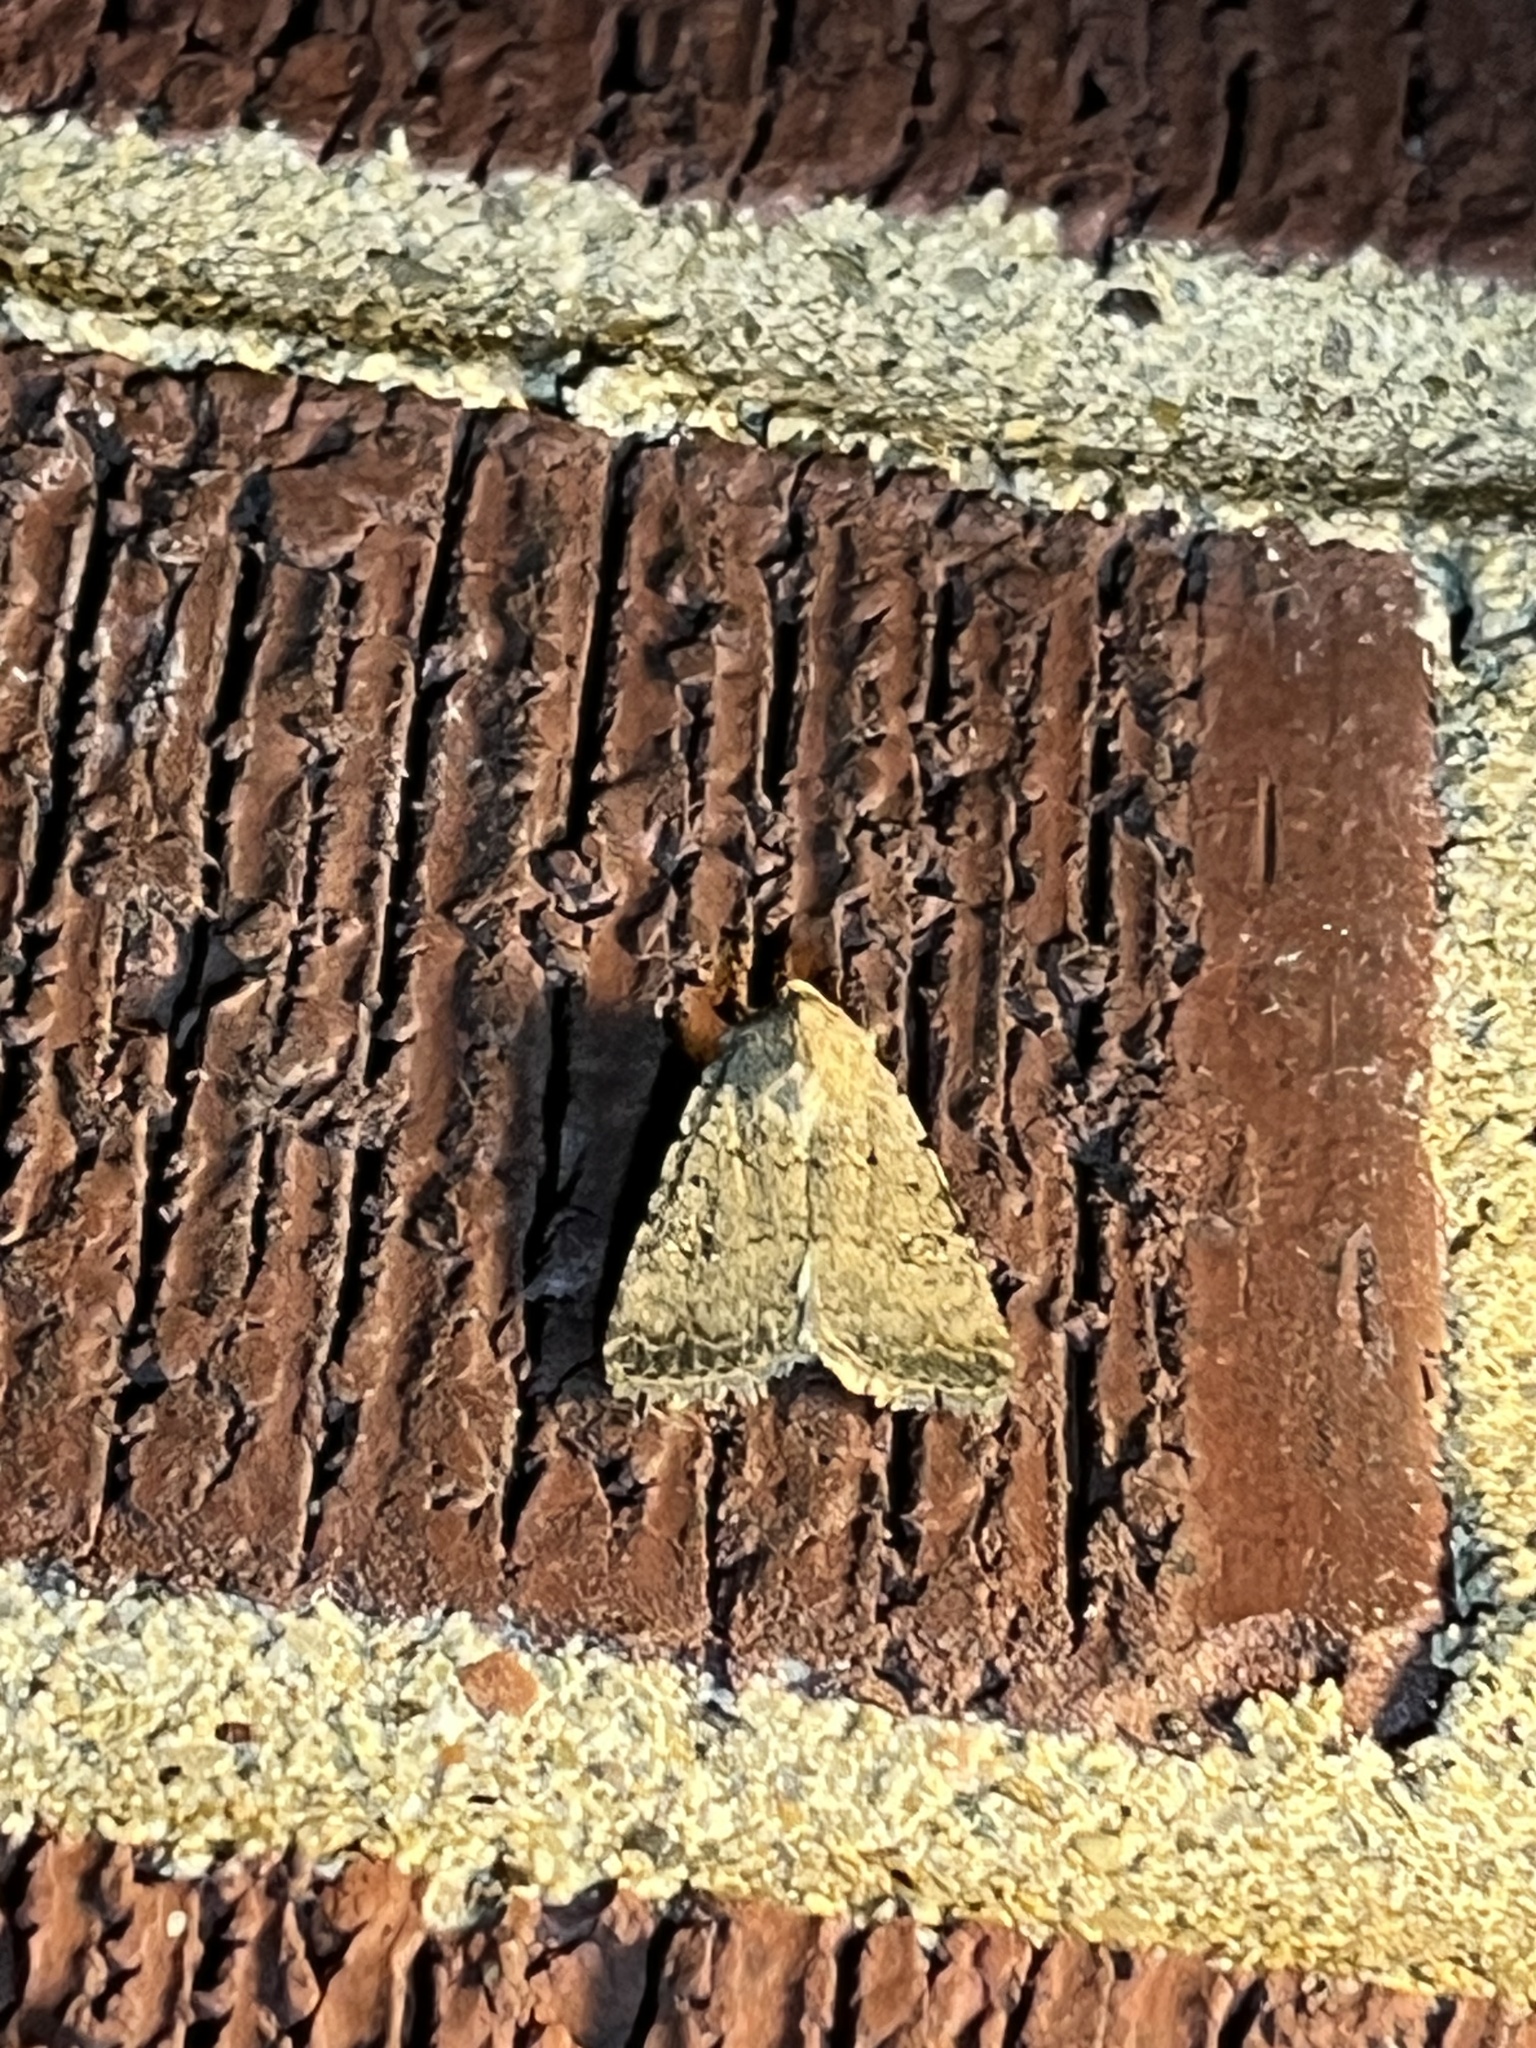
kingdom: Animalia
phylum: Arthropoda
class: Insecta
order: Lepidoptera
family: Noctuidae
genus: Caradrina
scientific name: Caradrina clavipalpis
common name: Pale mottled willow
